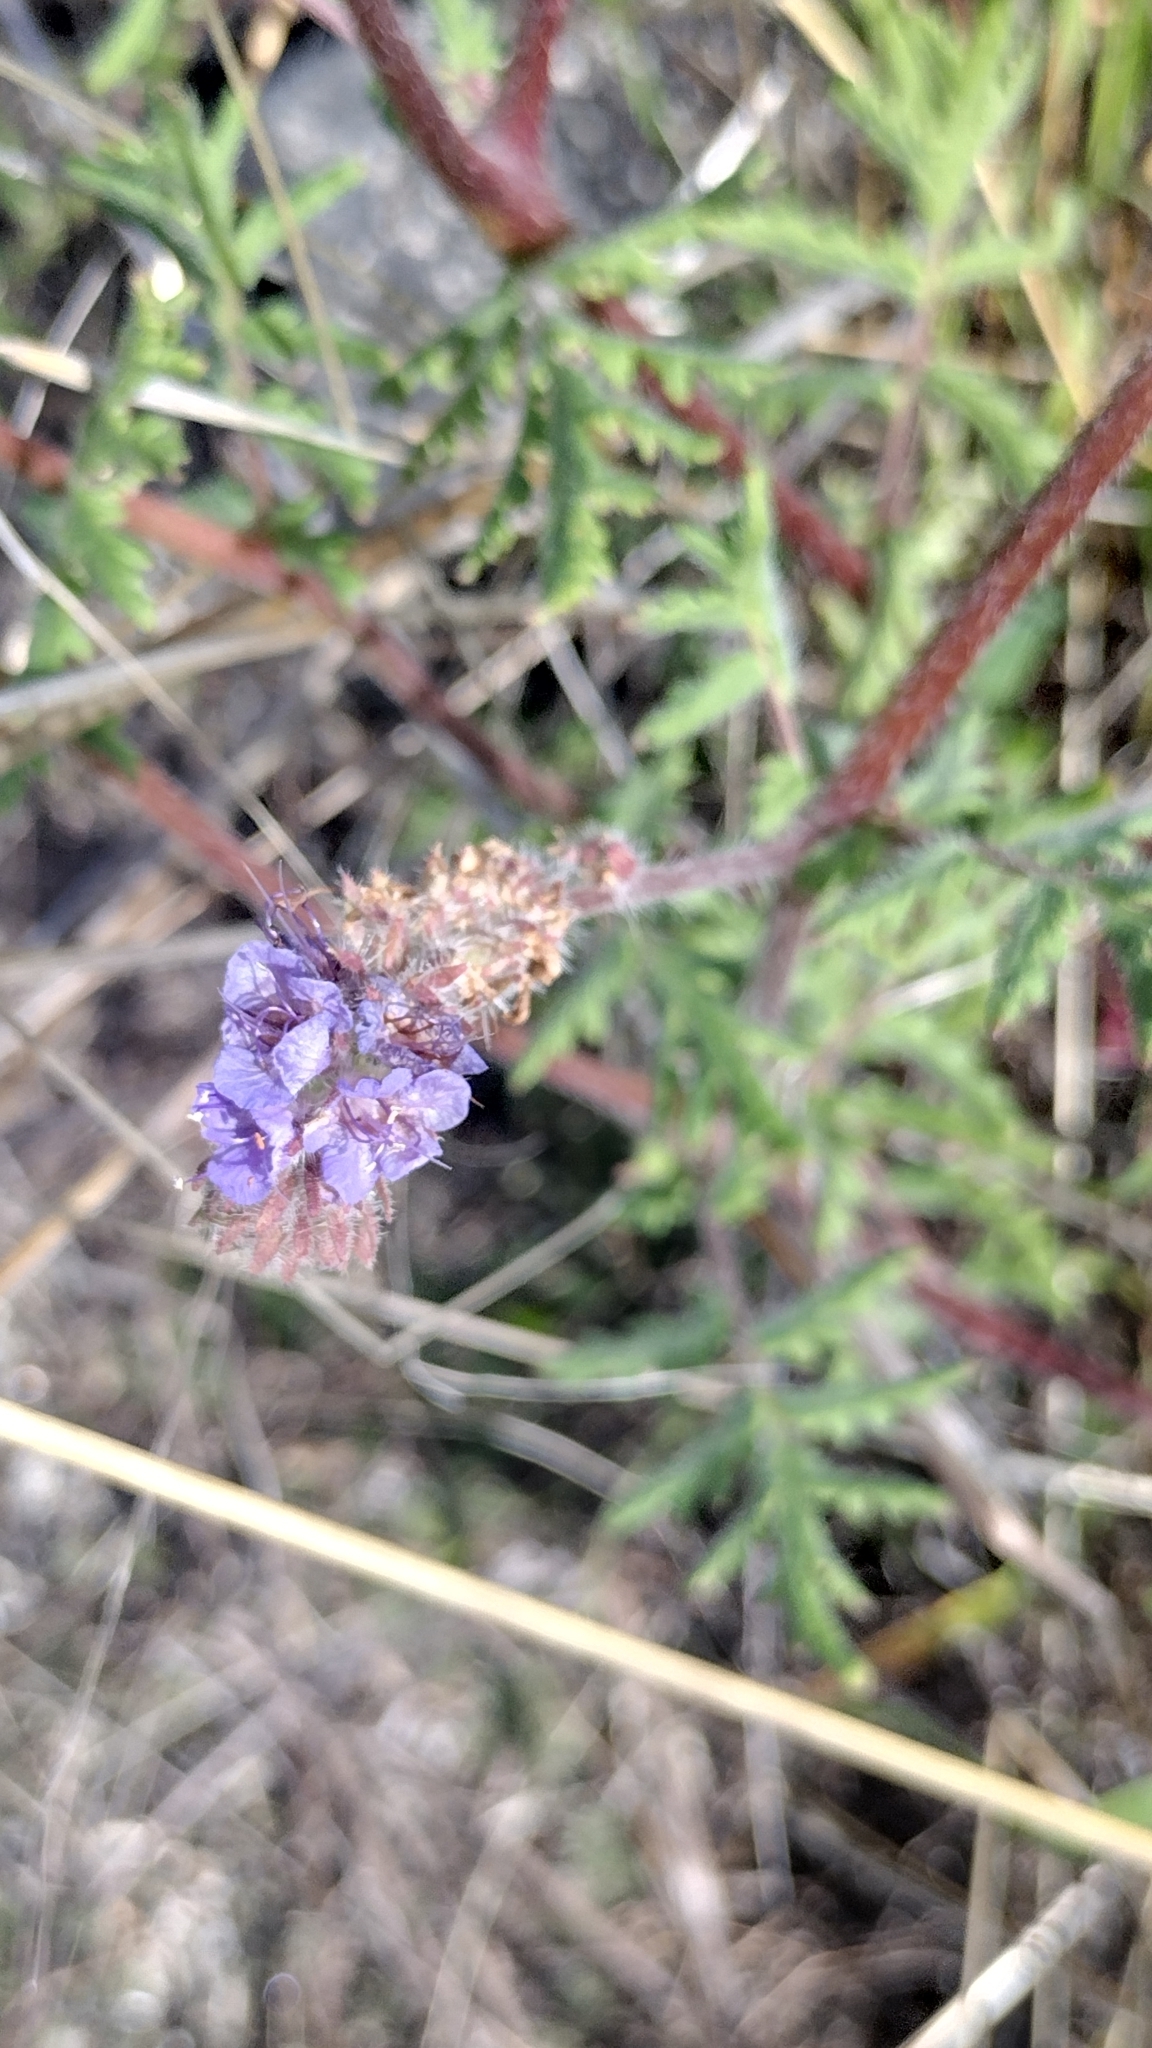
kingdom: Plantae
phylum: Tracheophyta
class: Magnoliopsida
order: Boraginales
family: Hydrophyllaceae
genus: Phacelia
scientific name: Phacelia distans
